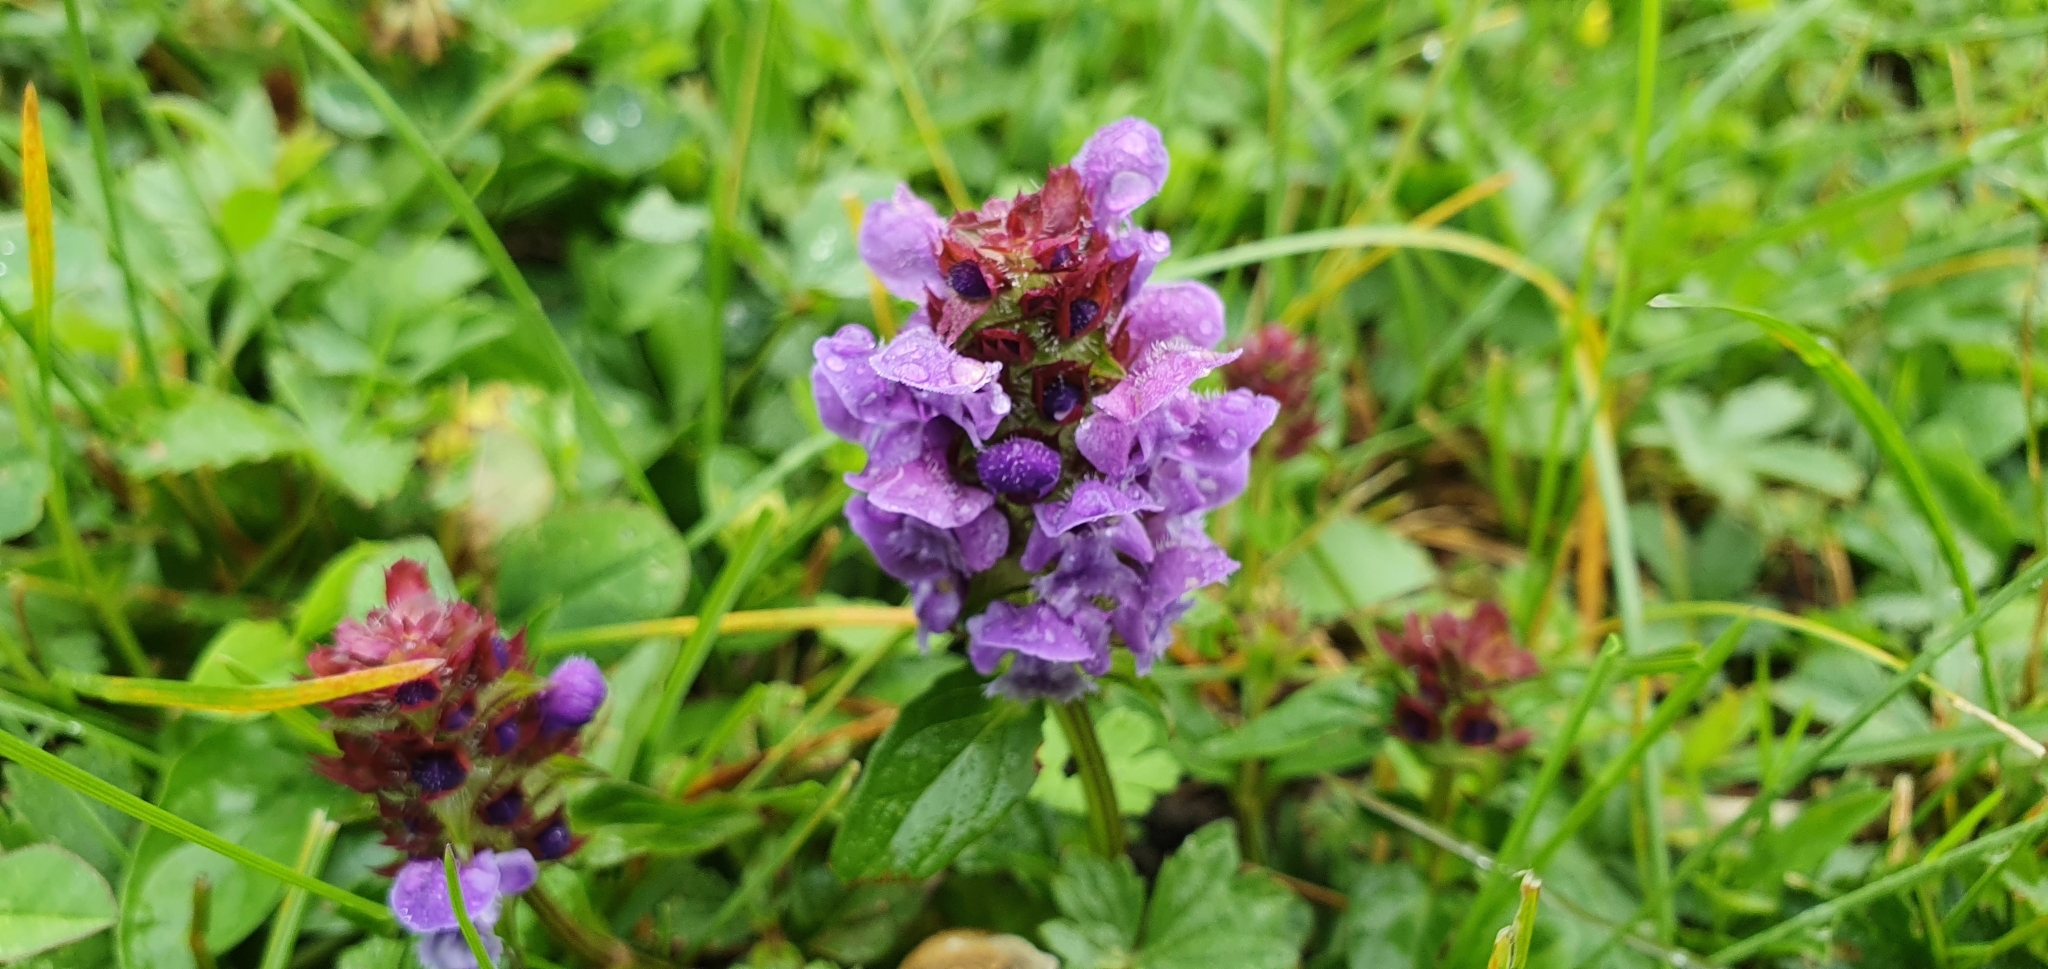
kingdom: Plantae
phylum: Tracheophyta
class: Magnoliopsida
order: Lamiales
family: Lamiaceae
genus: Prunella
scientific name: Prunella vulgaris
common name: Heal-all
